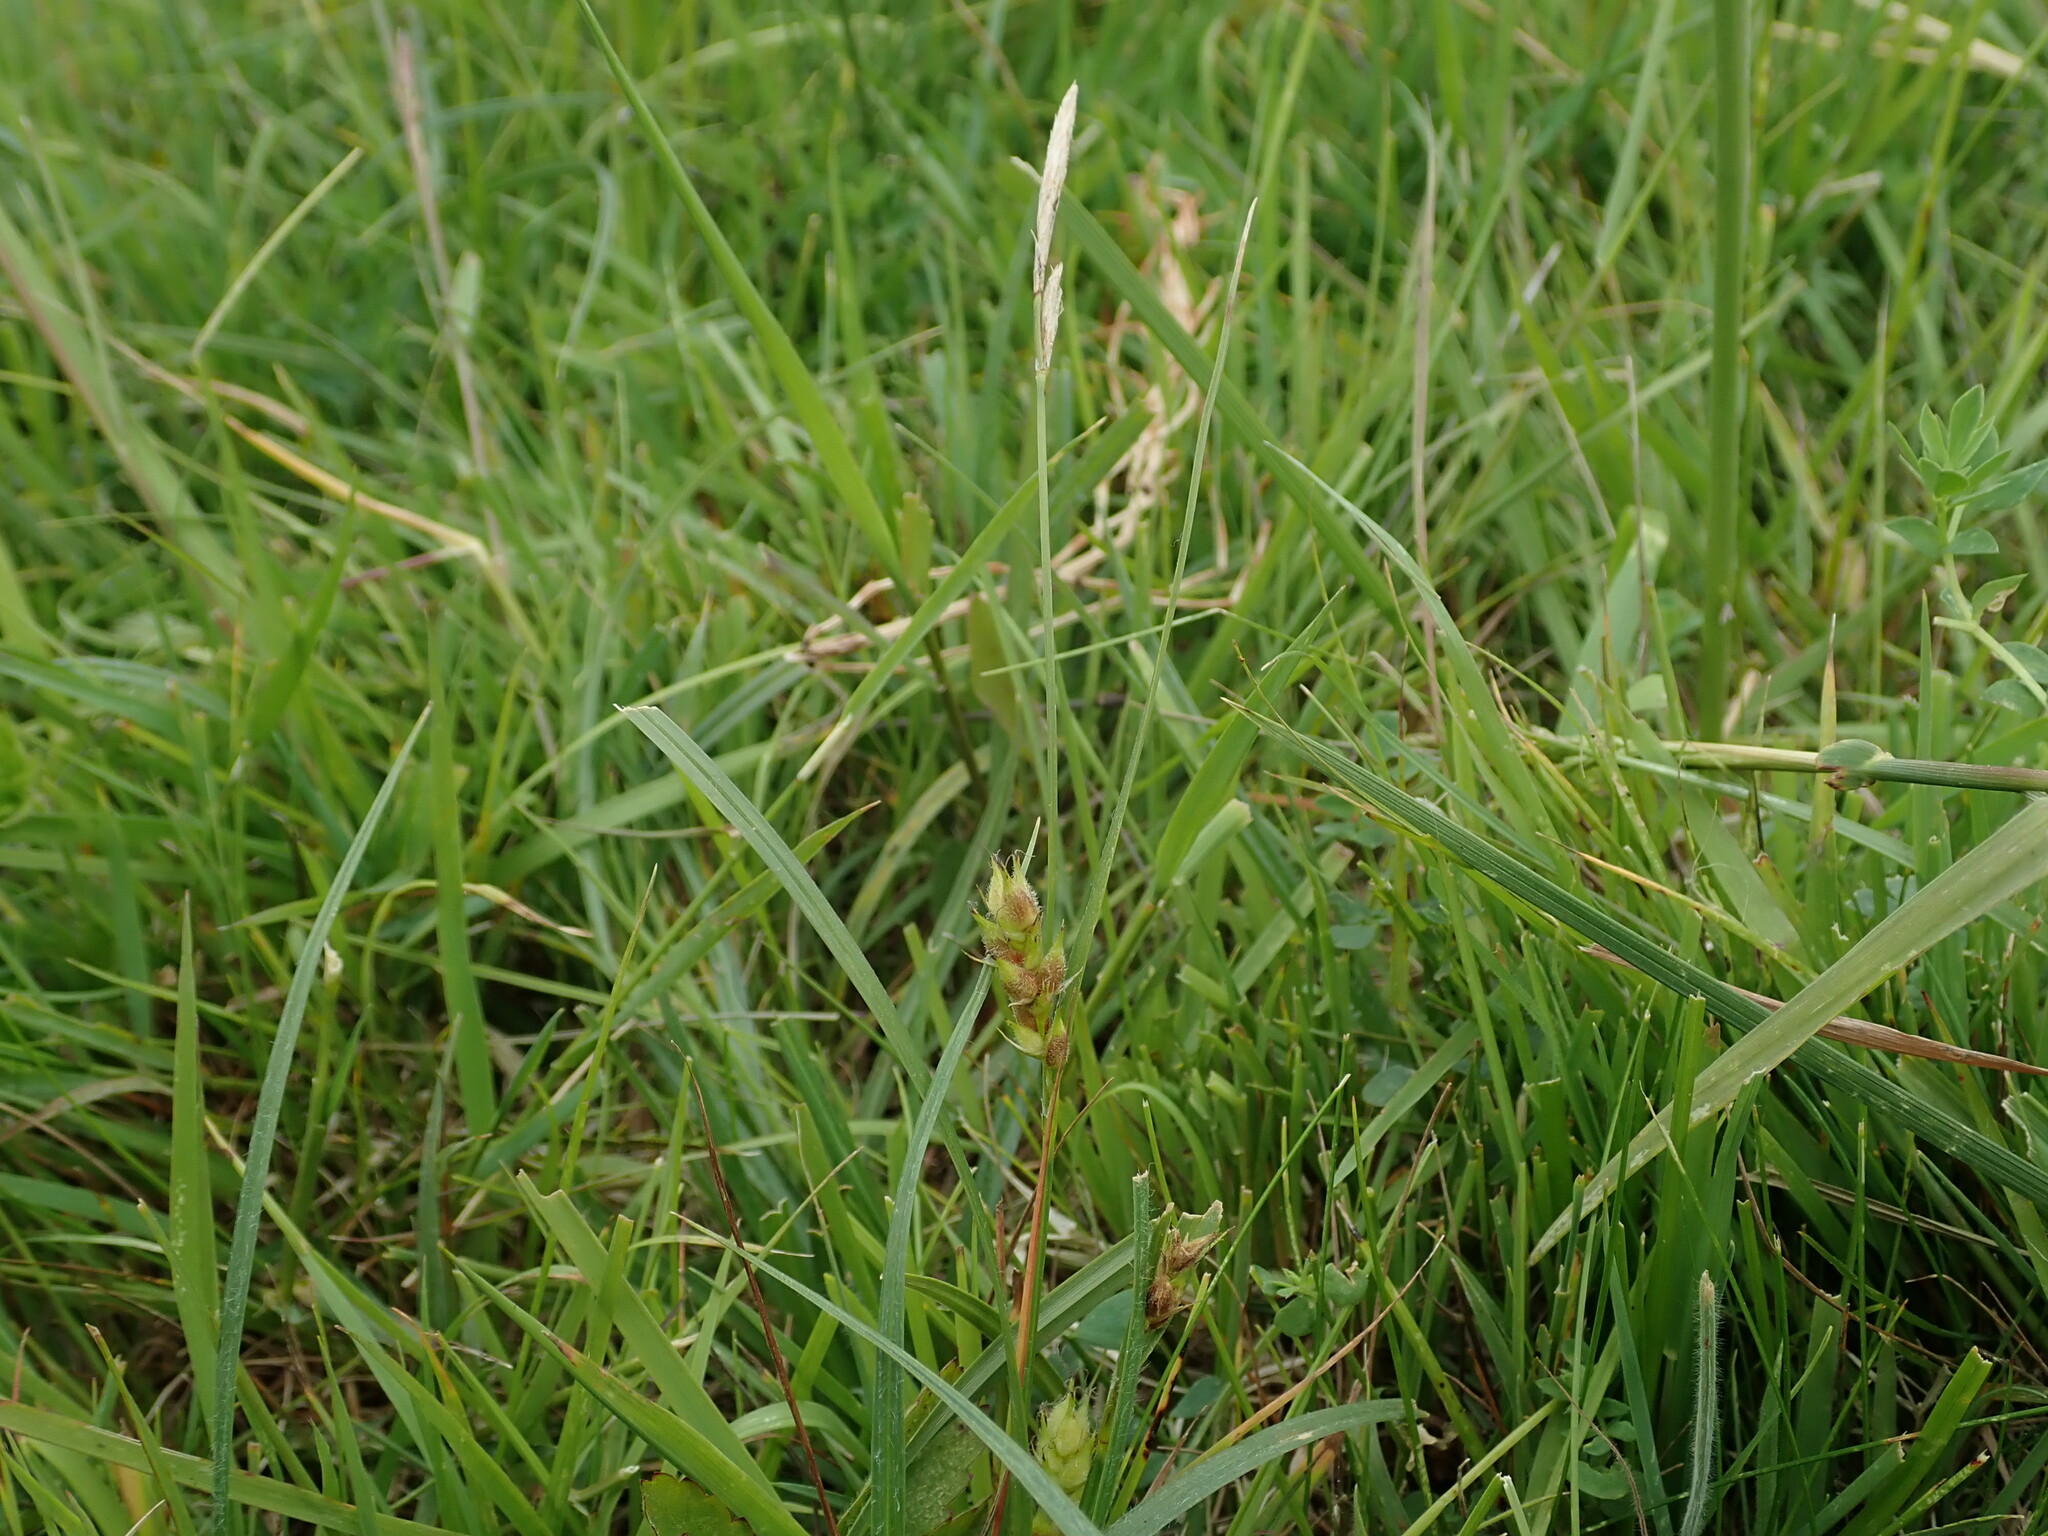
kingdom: Plantae
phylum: Tracheophyta
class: Liliopsida
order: Poales
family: Cyperaceae
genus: Carex
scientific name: Carex hirta
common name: Hairy sedge
